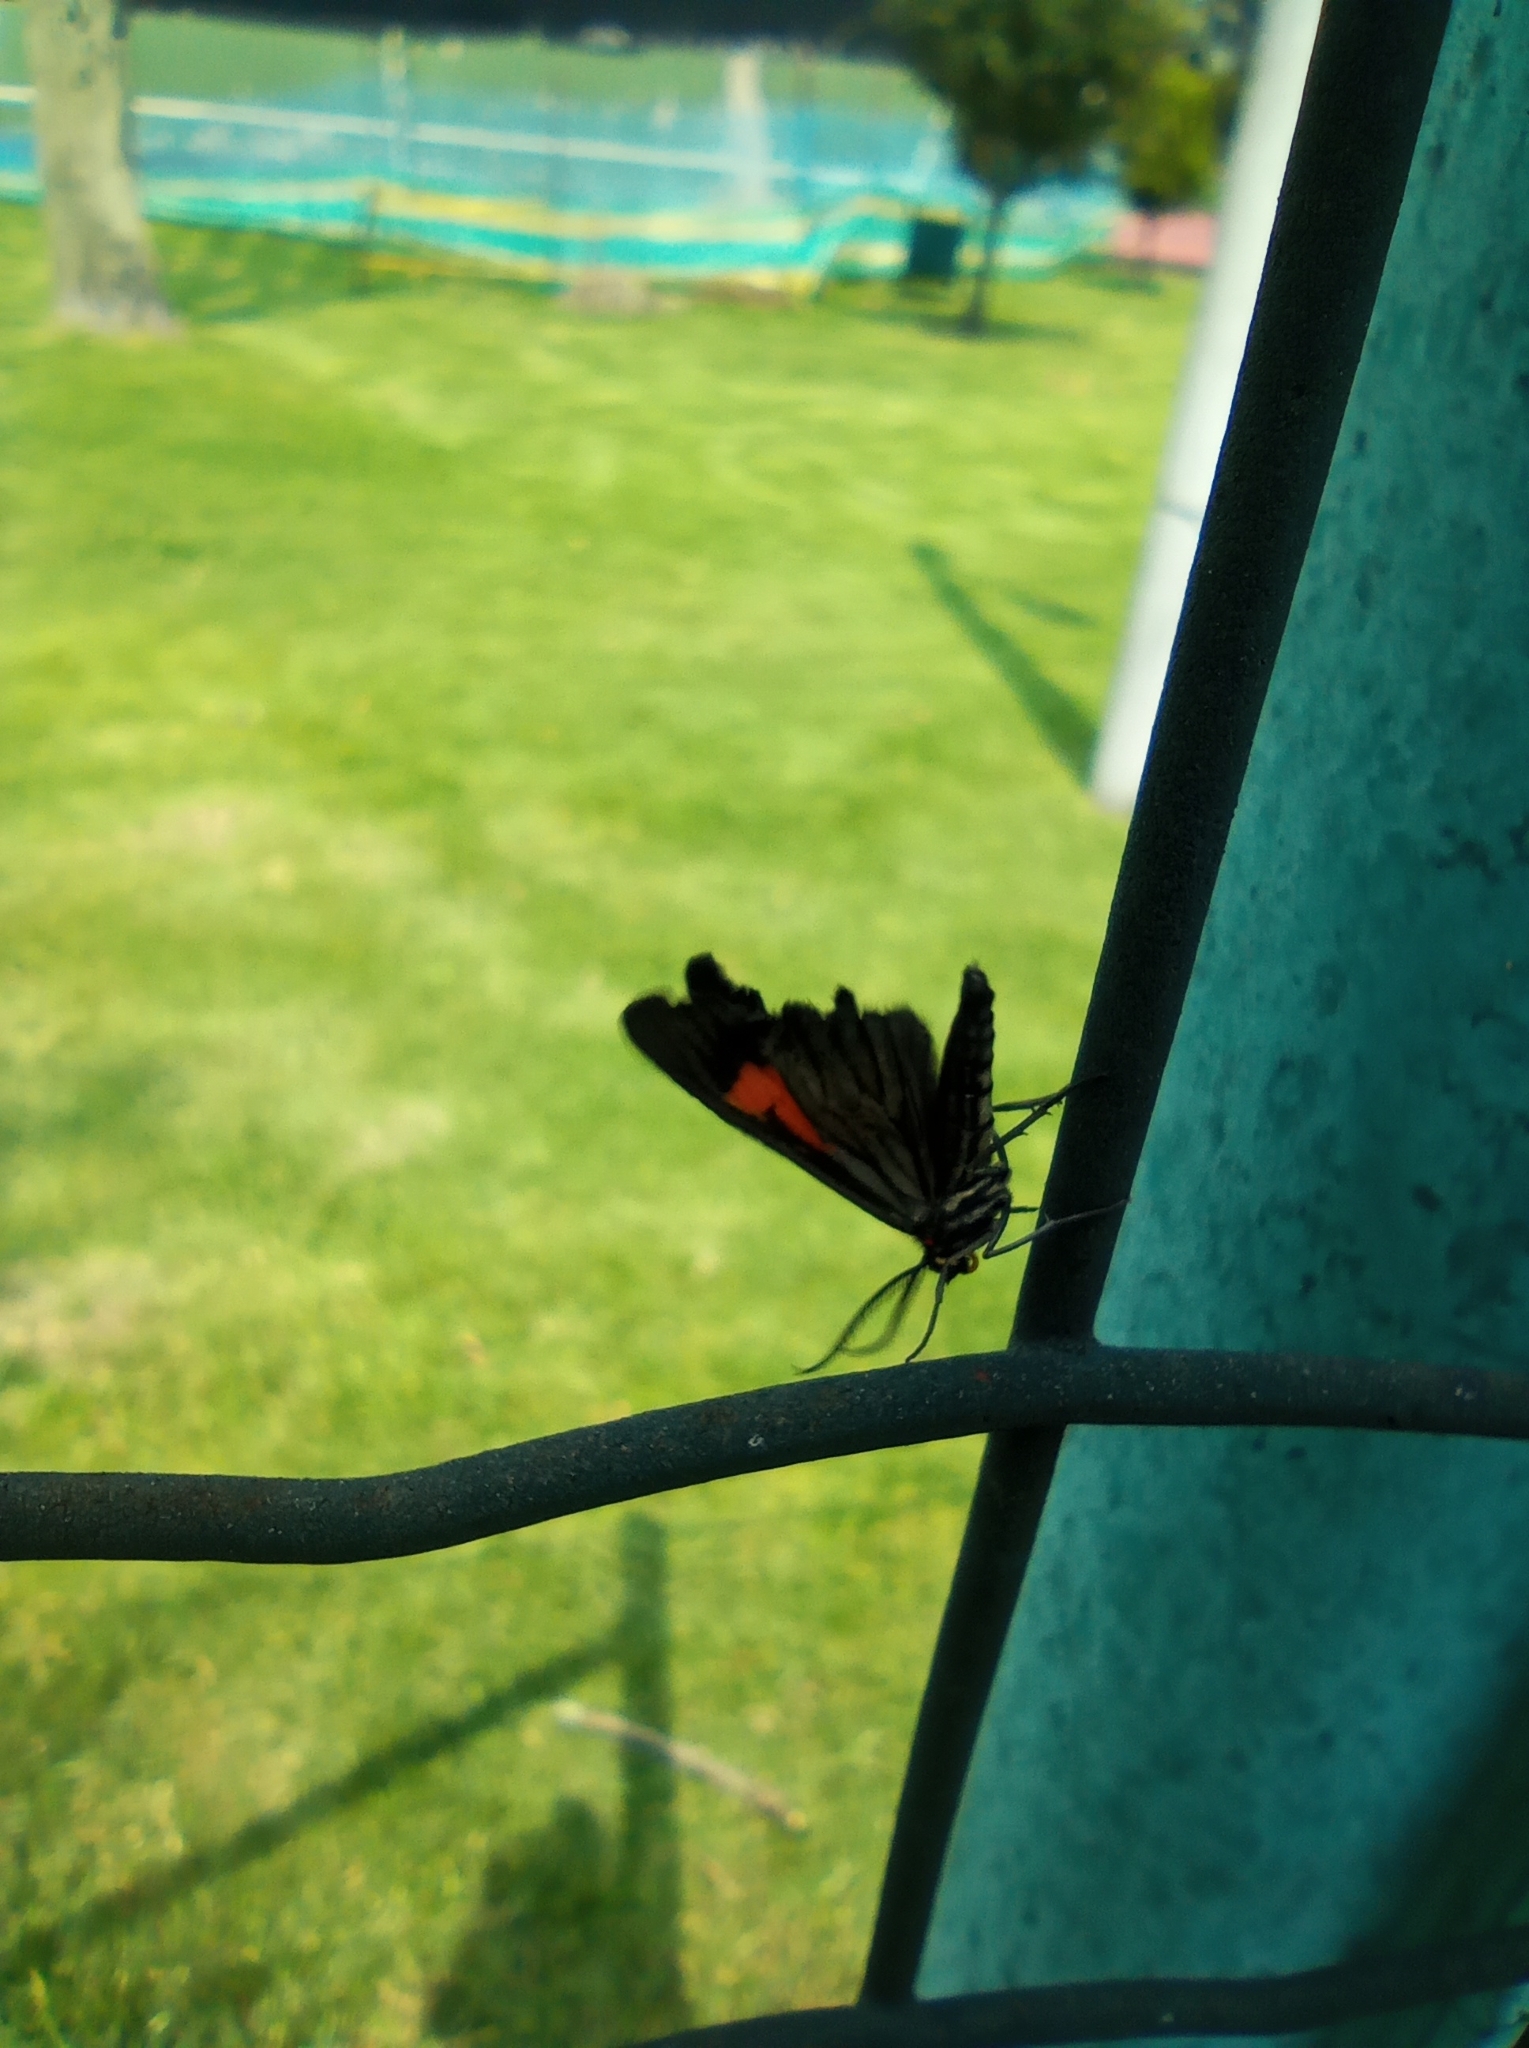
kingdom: Animalia
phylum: Arthropoda
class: Insecta
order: Lepidoptera
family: Geometridae
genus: Drymoea
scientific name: Drymoea
